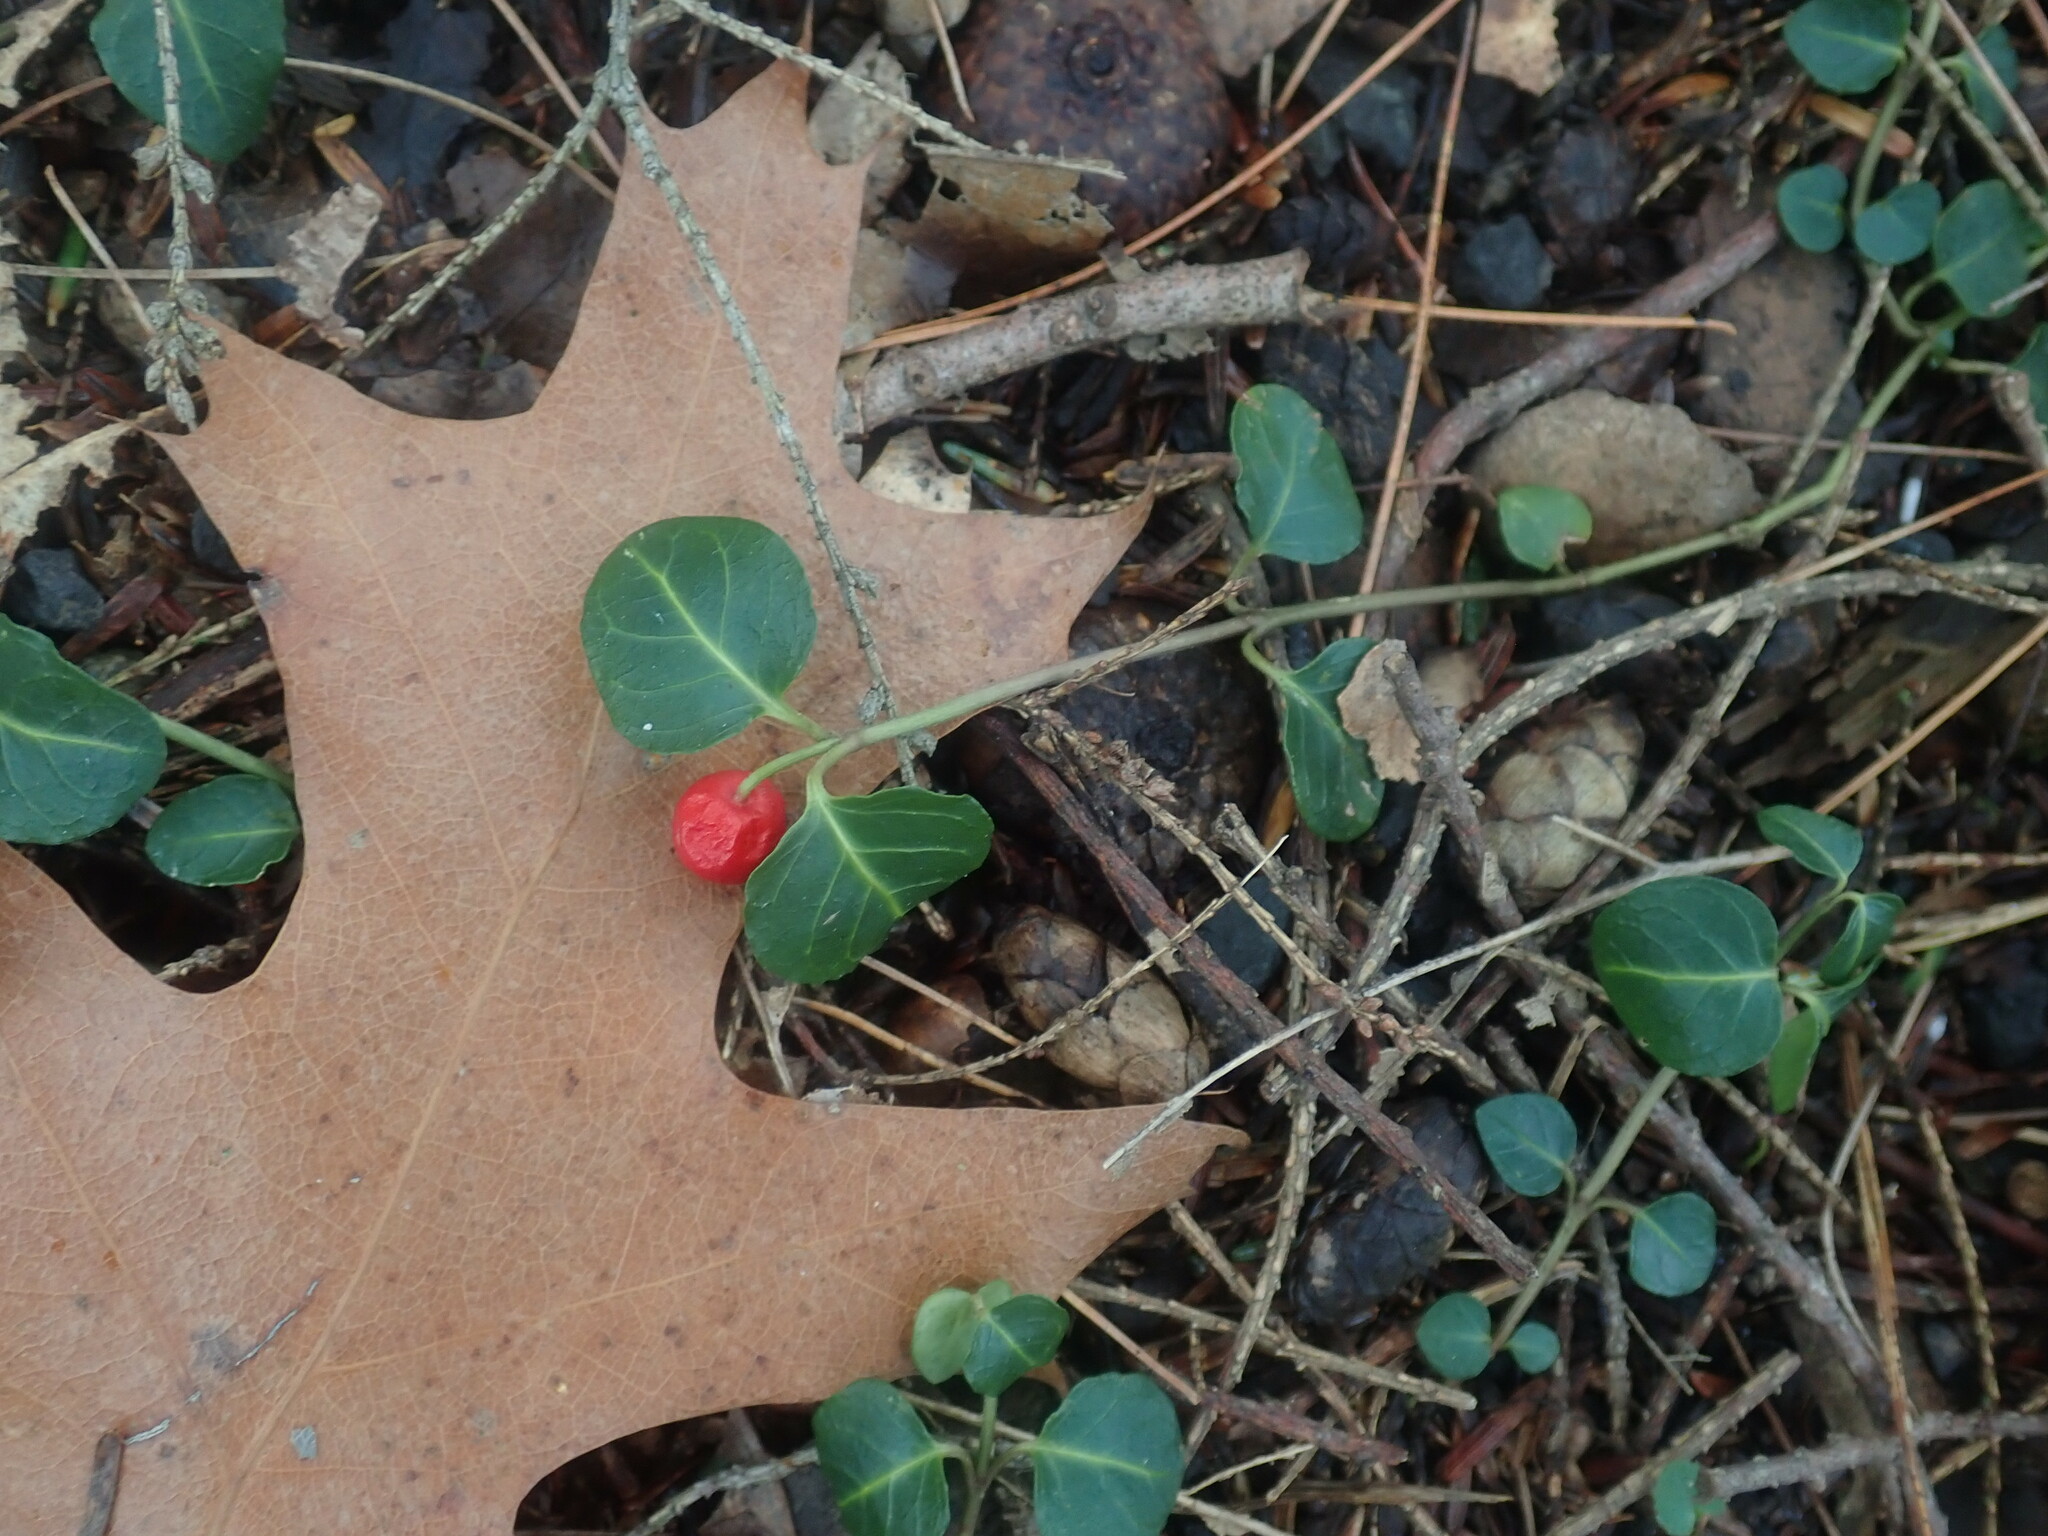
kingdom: Plantae
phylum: Tracheophyta
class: Magnoliopsida
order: Gentianales
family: Rubiaceae
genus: Mitchella
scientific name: Mitchella repens
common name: Partridge-berry
